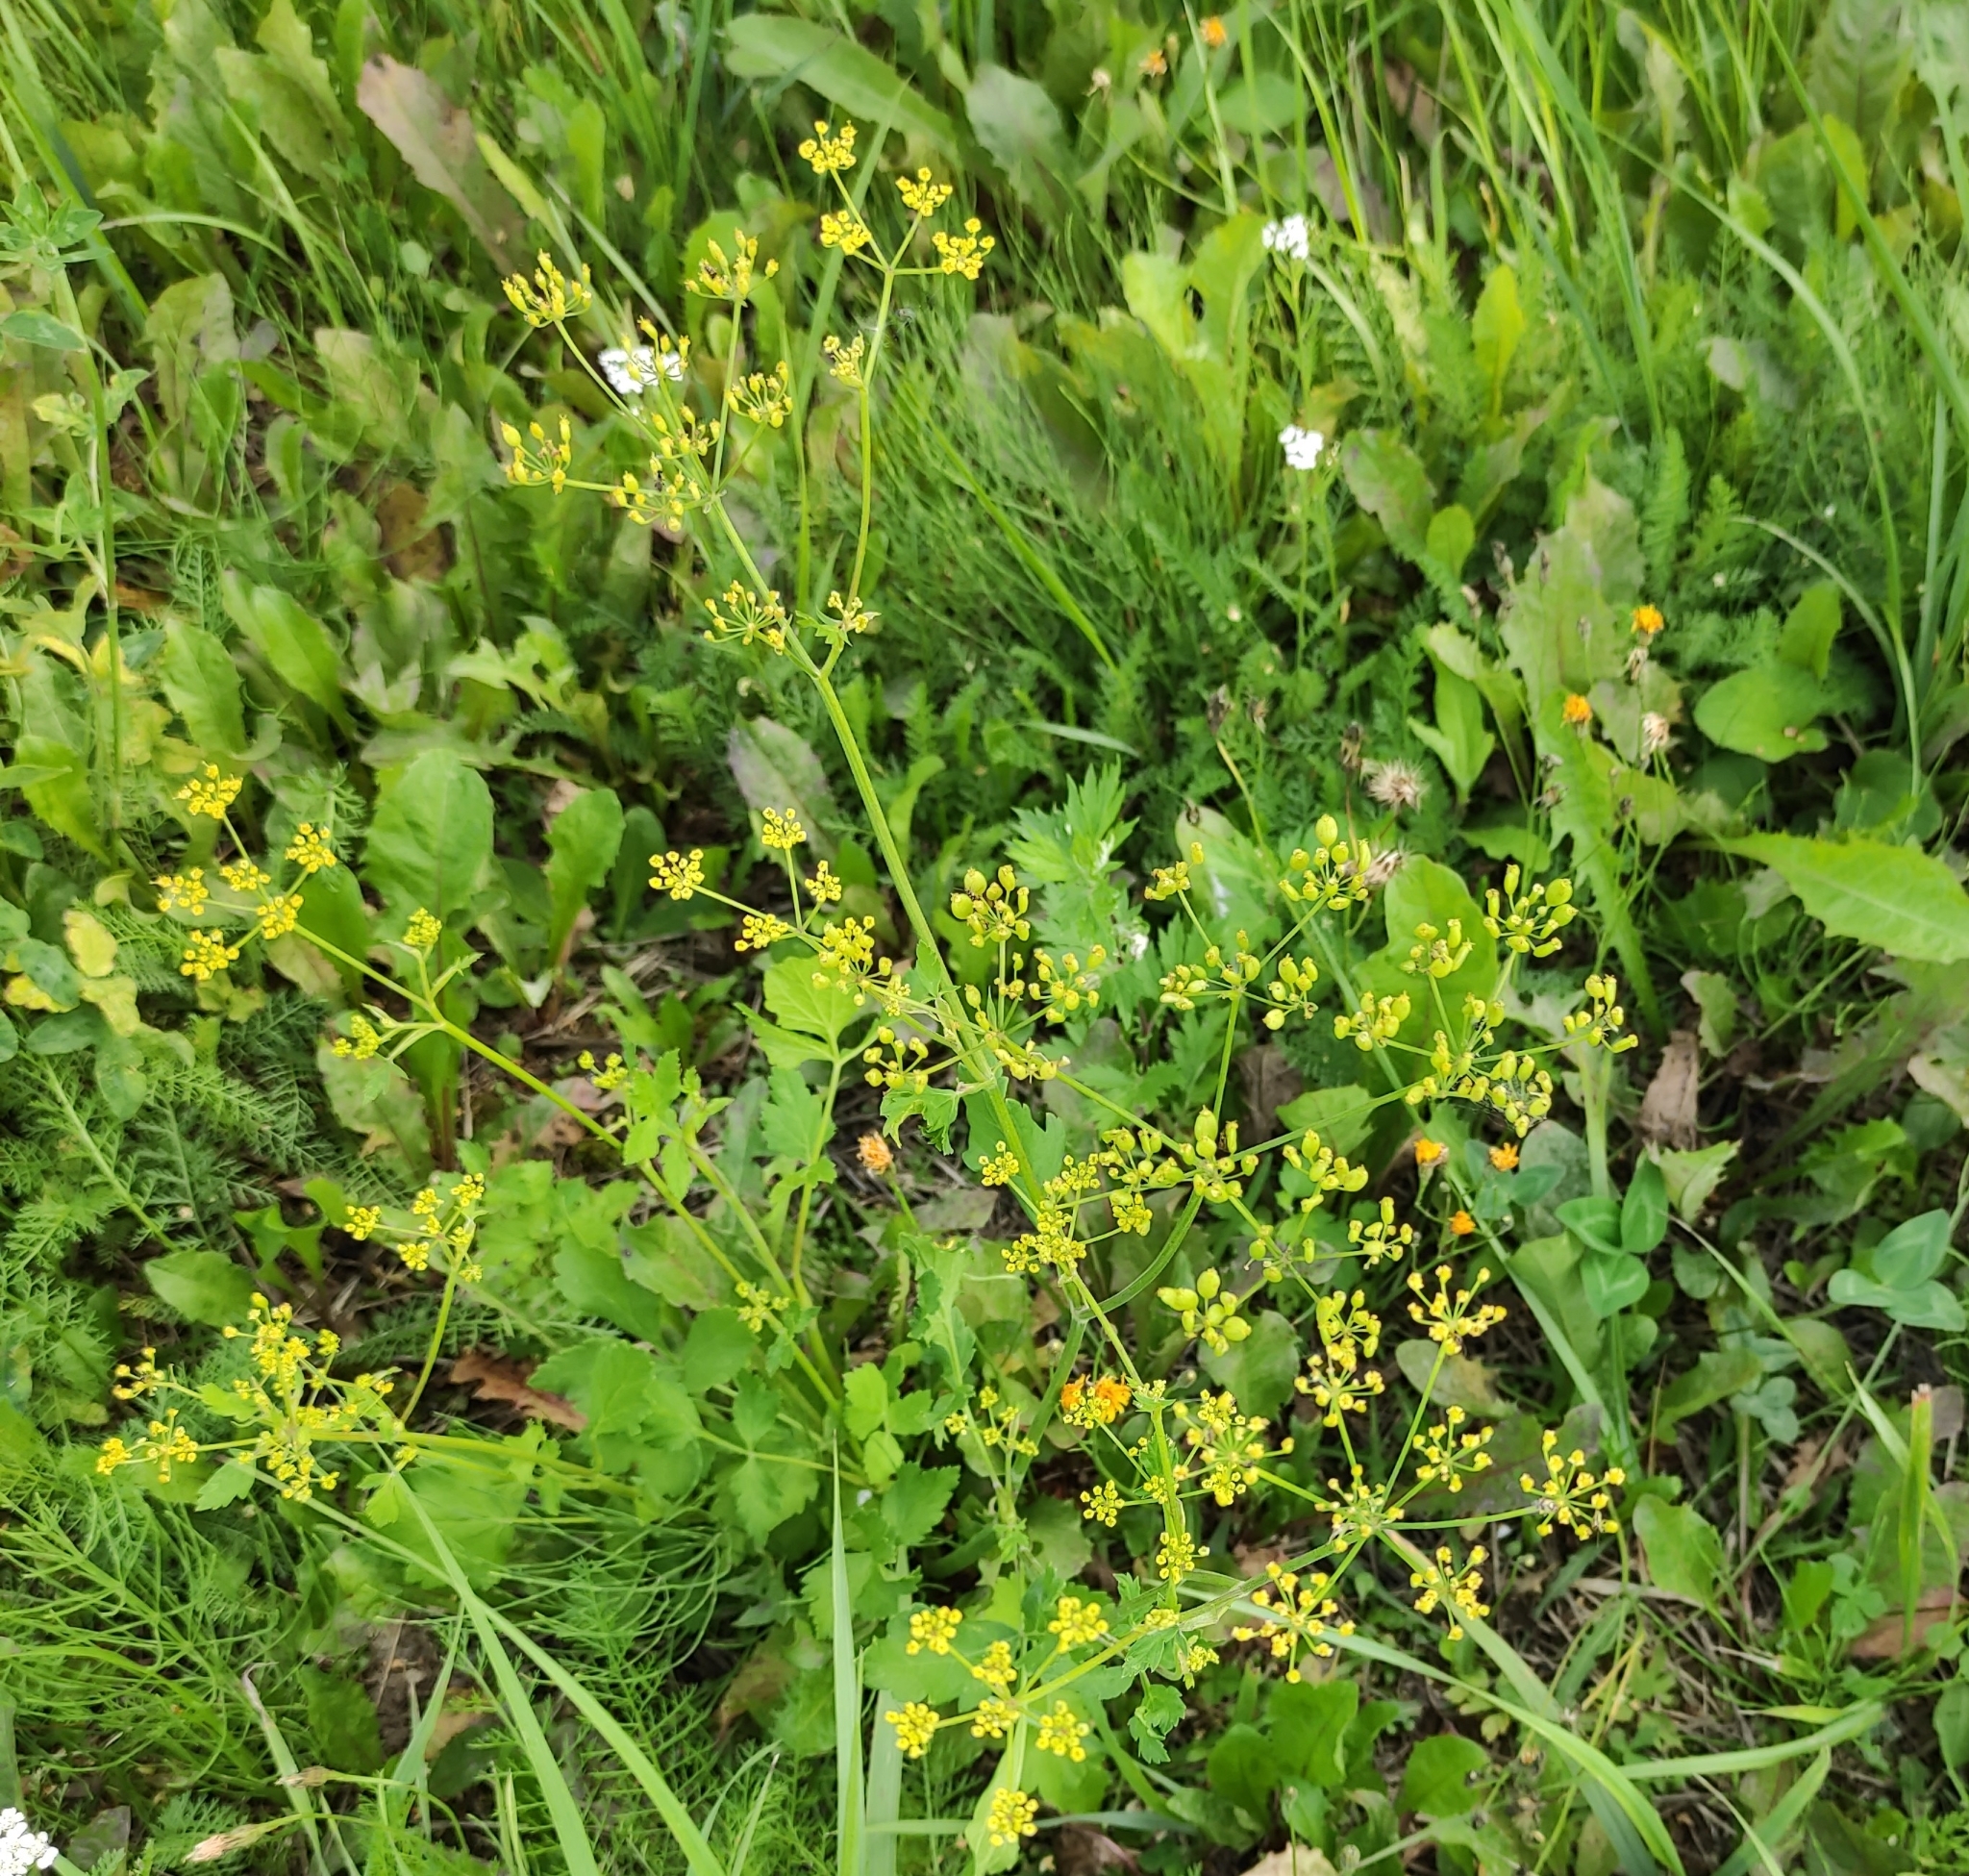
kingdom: Plantae
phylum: Tracheophyta
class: Magnoliopsida
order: Apiales
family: Apiaceae
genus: Pastinaca
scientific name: Pastinaca sativa
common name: Wild parsnip
